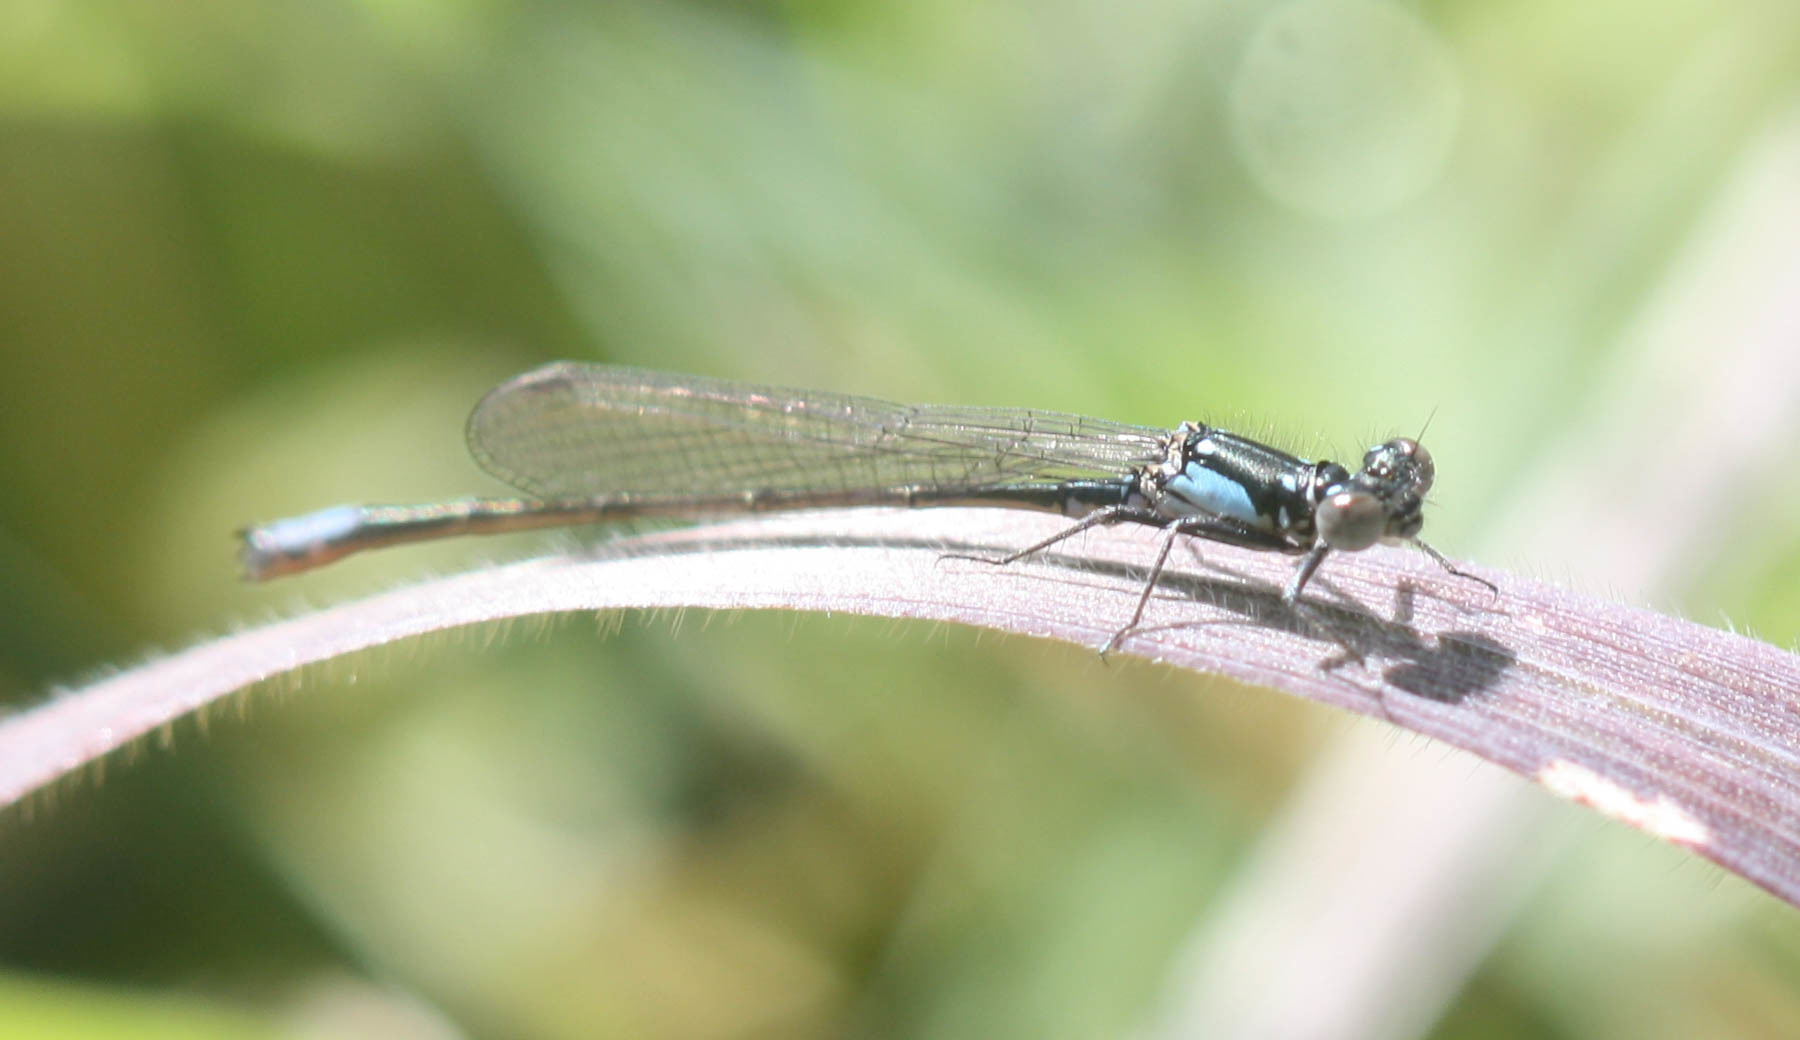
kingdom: Animalia
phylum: Arthropoda
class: Insecta
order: Odonata
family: Coenagrionidae
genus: Ischnura
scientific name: Ischnura cervula
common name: Pacific forktail
